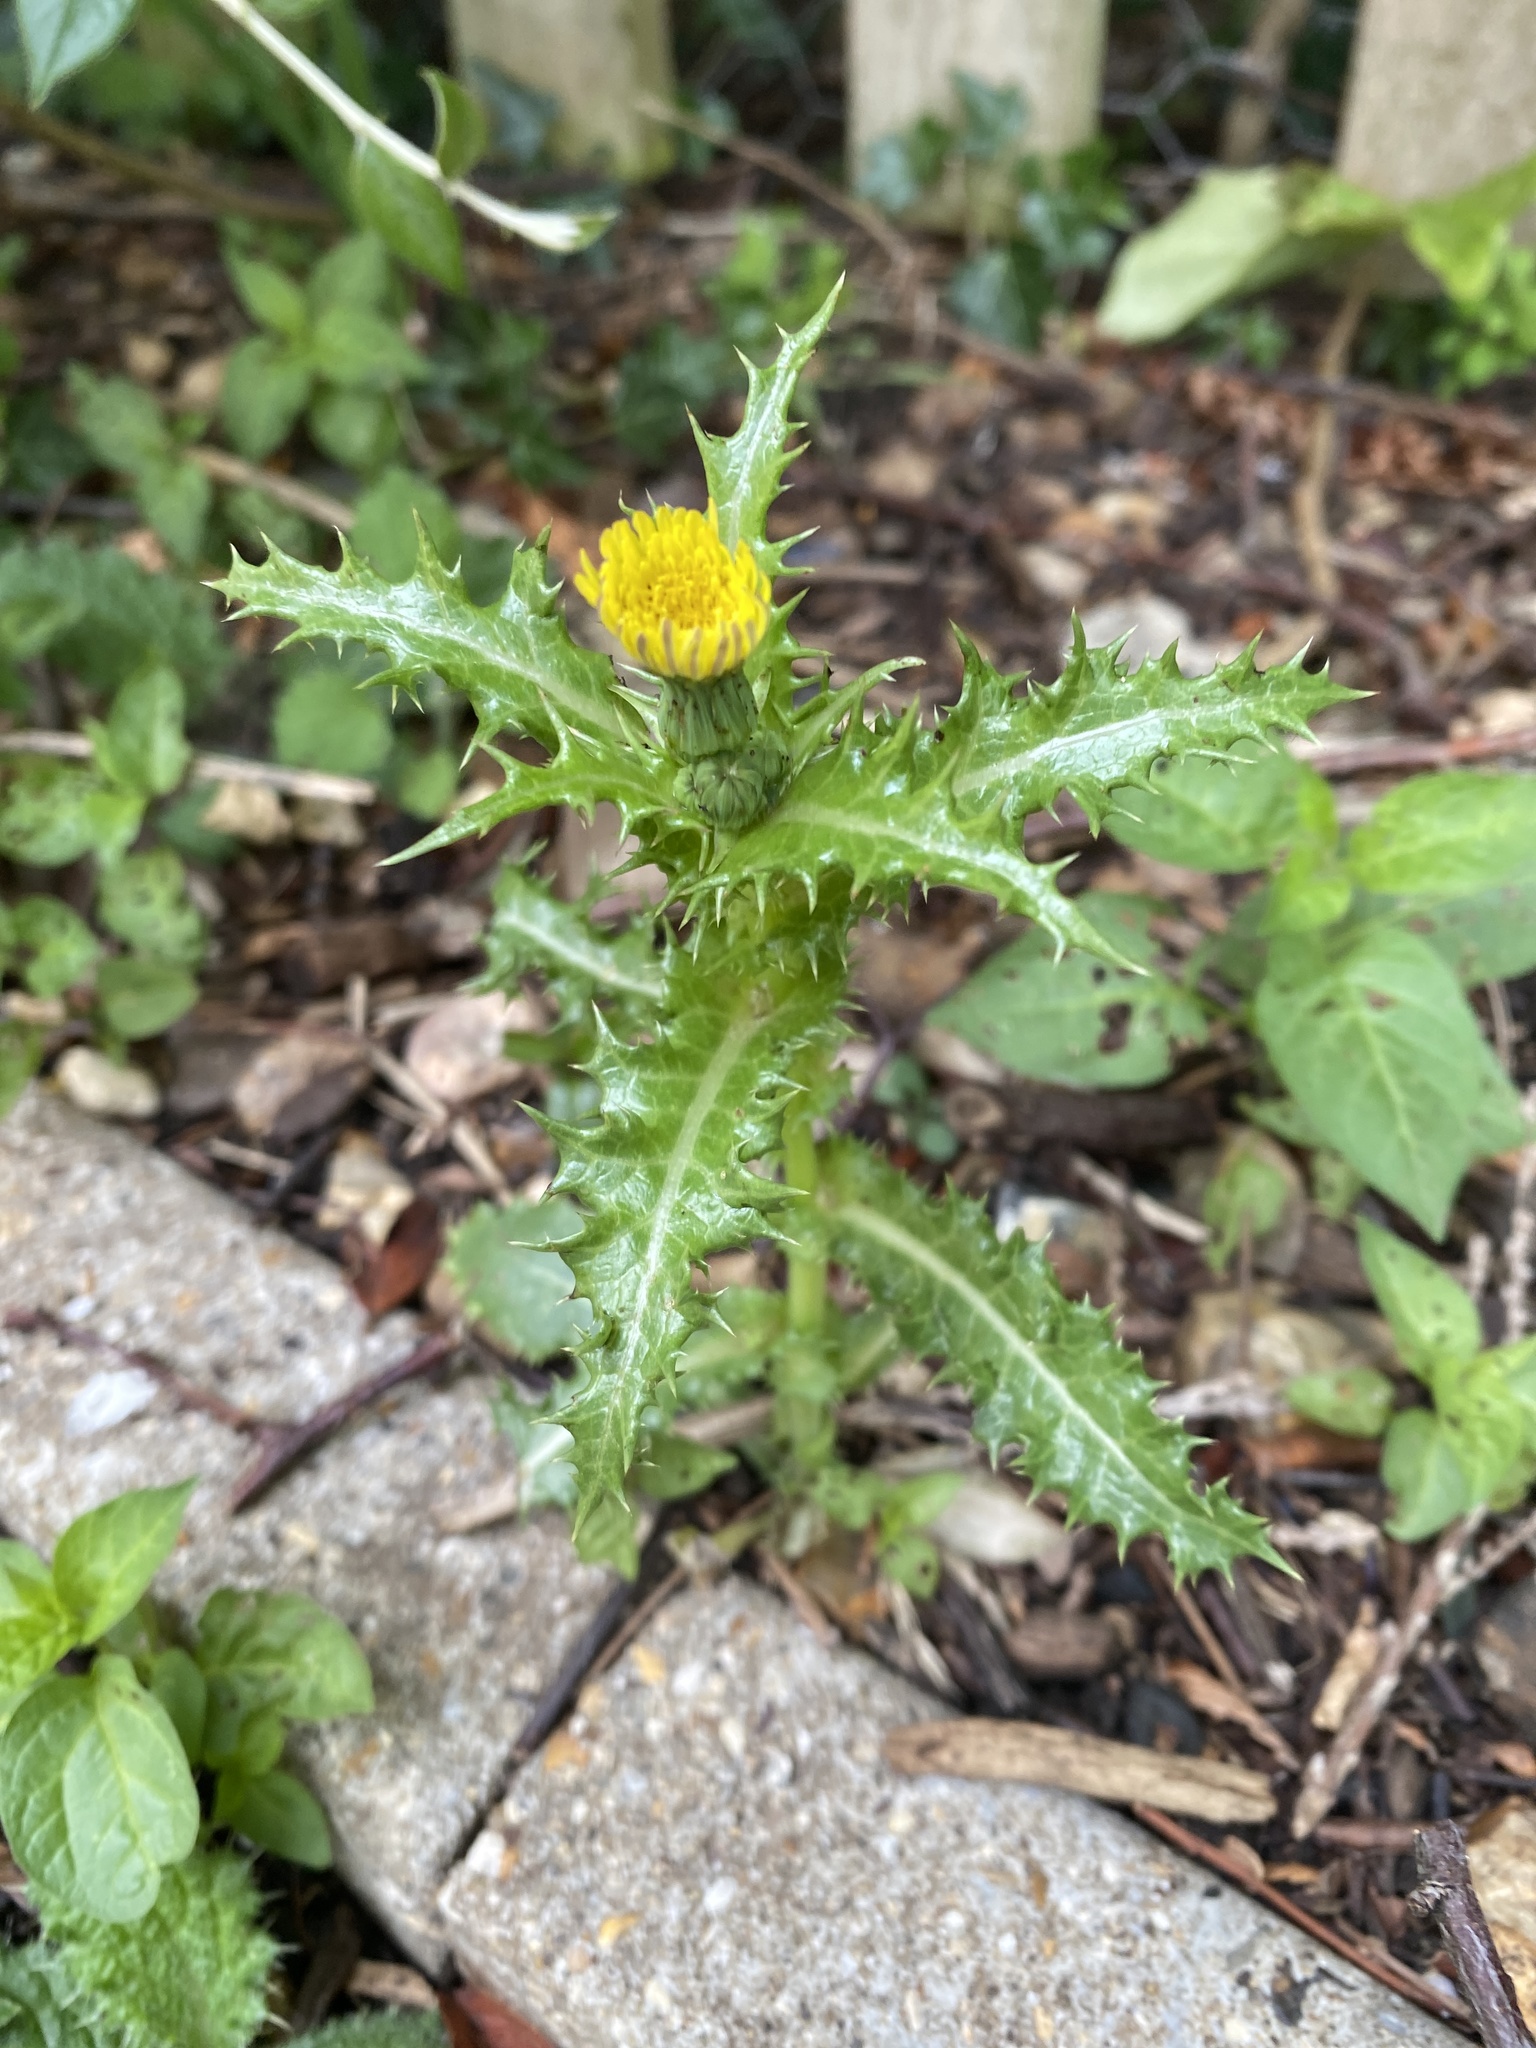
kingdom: Plantae
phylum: Tracheophyta
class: Magnoliopsida
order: Asterales
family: Asteraceae
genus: Sonchus
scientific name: Sonchus asper
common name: Prickly sow-thistle
